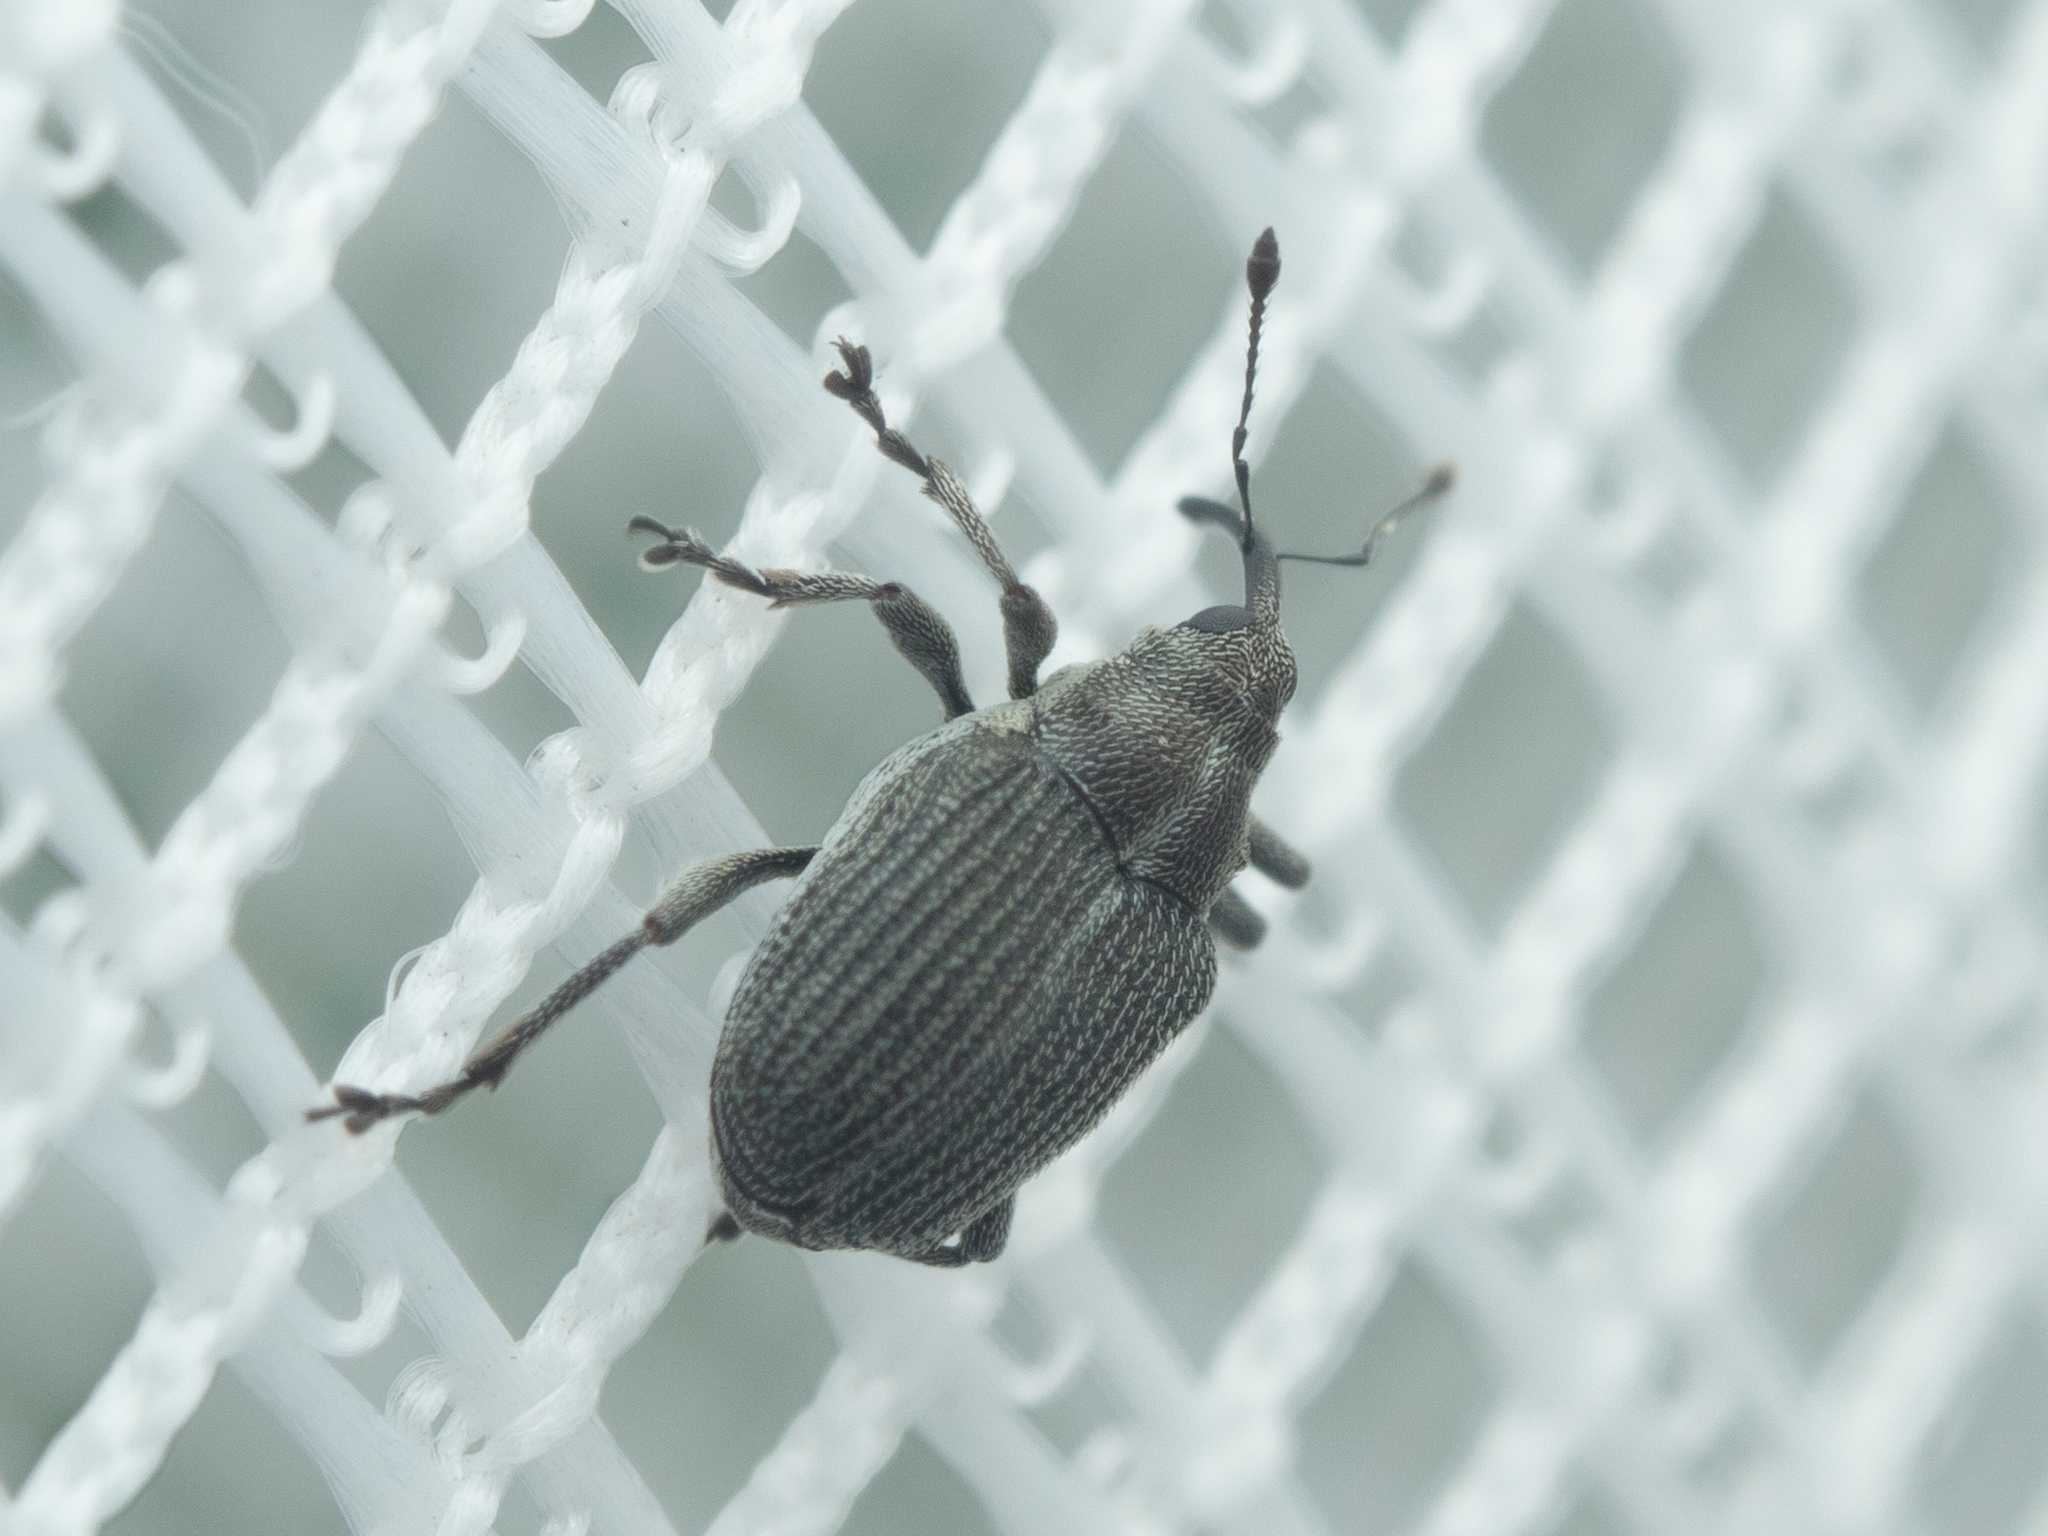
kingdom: Animalia
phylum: Arthropoda
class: Insecta
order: Coleoptera
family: Curculionidae
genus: Ceutorhynchus
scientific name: Ceutorhynchus obstrictus
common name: Cabbage seed weevil
